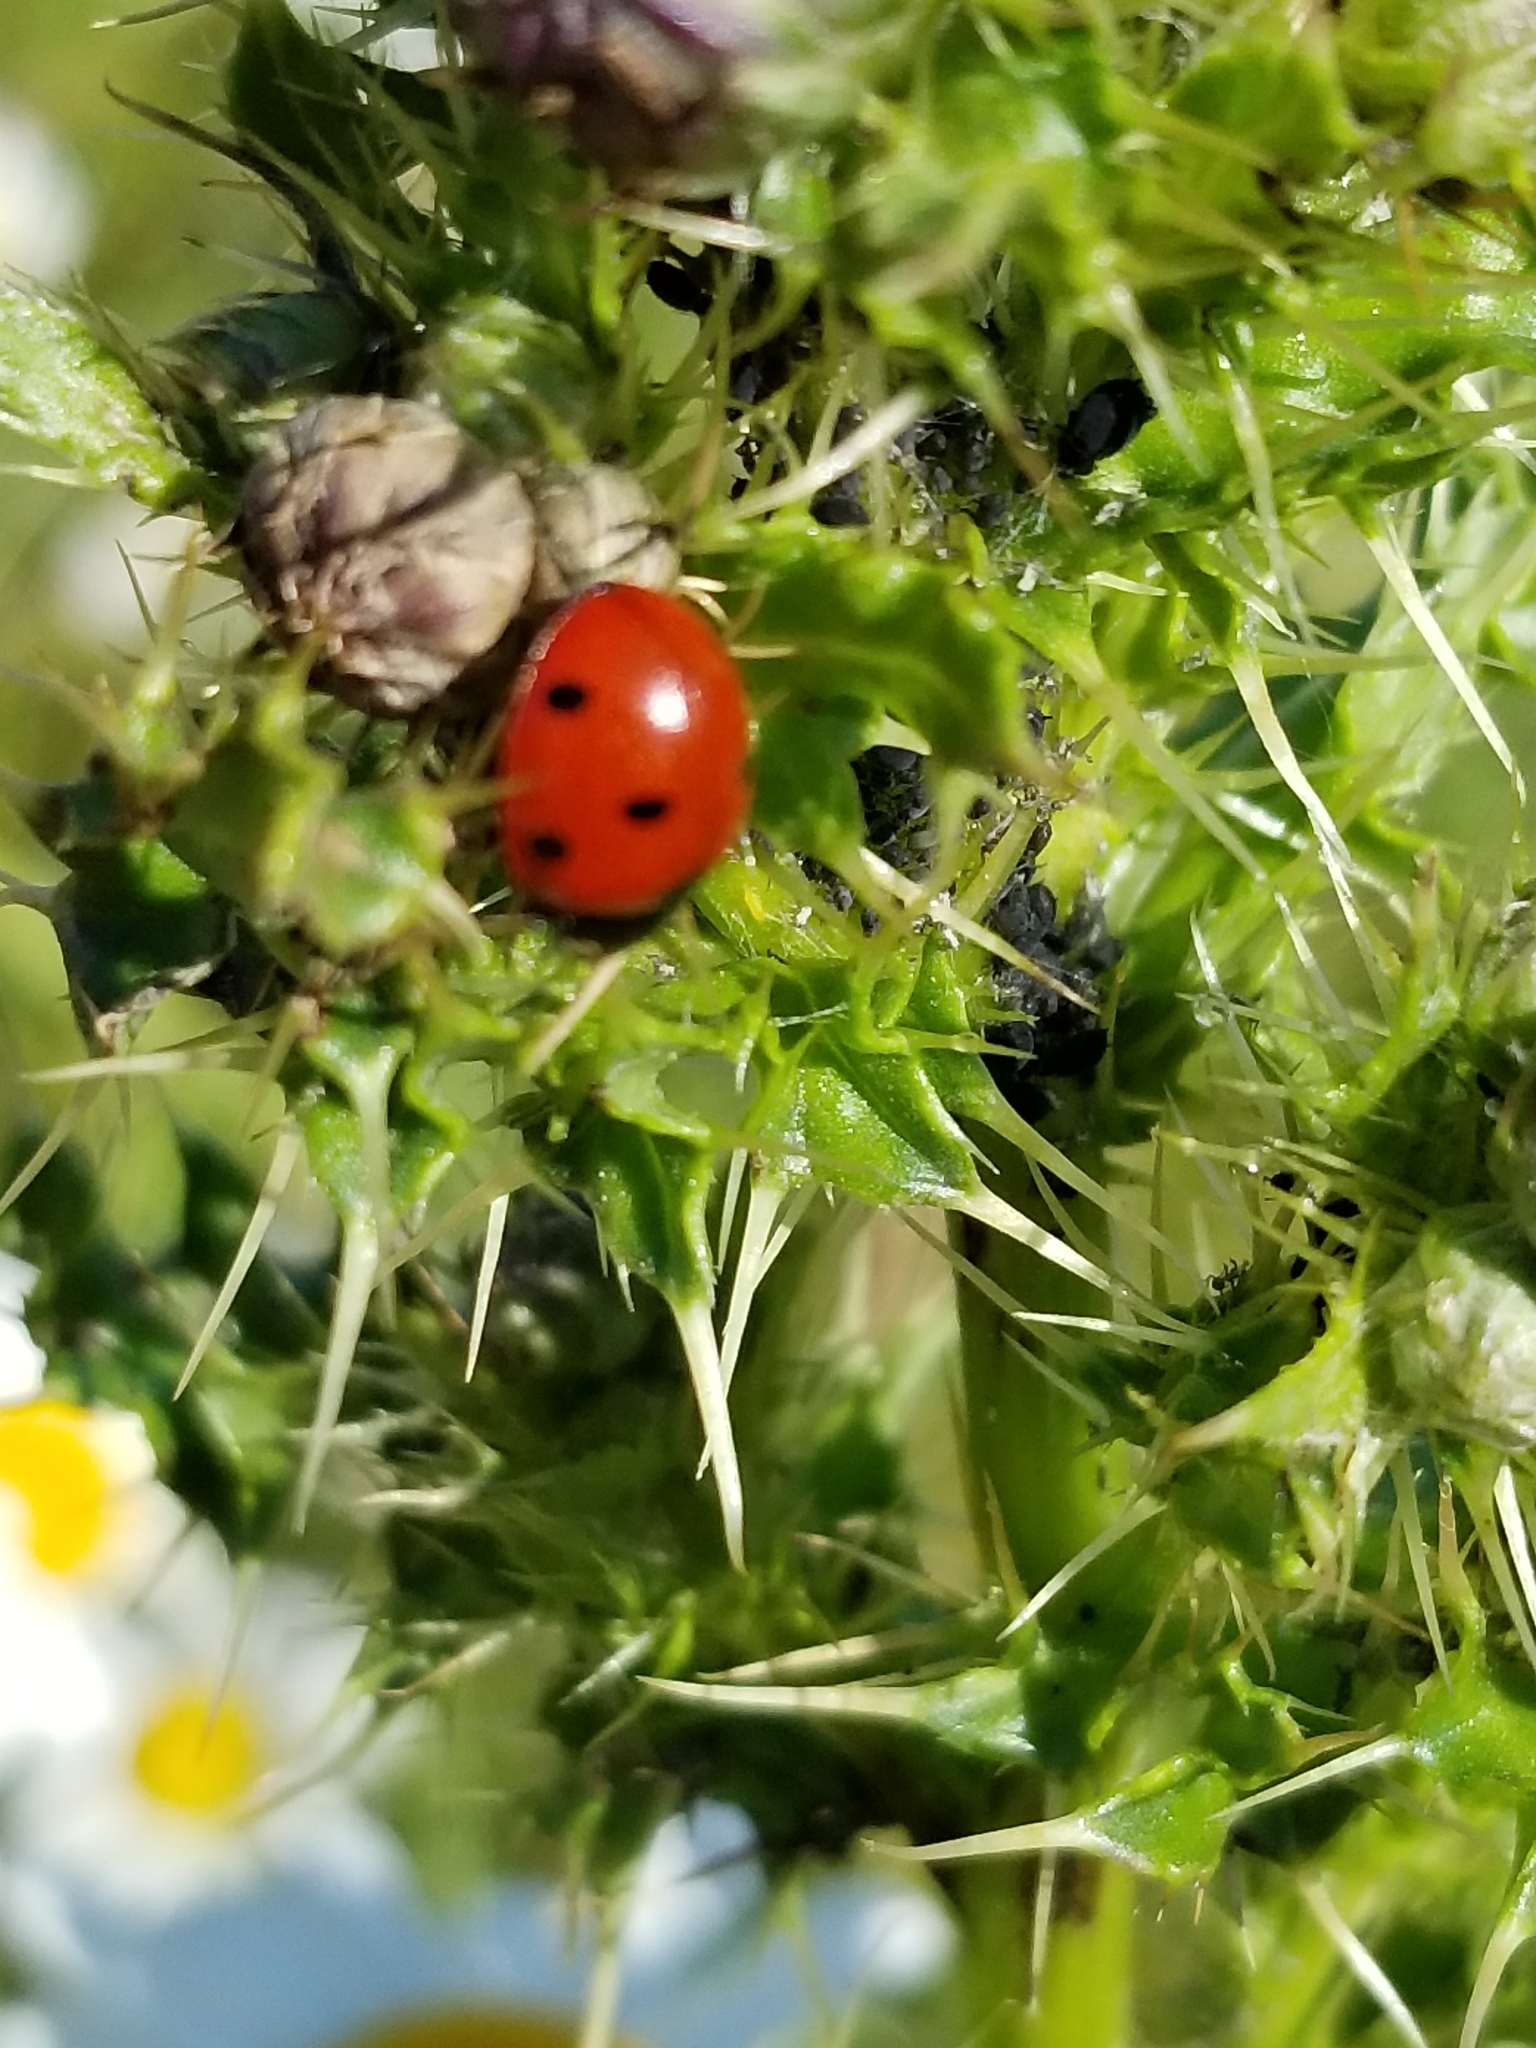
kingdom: Animalia
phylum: Arthropoda
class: Insecta
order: Coleoptera
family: Coccinellidae
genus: Coccinella
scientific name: Coccinella septempunctata
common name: Sevenspotted lady beetle
